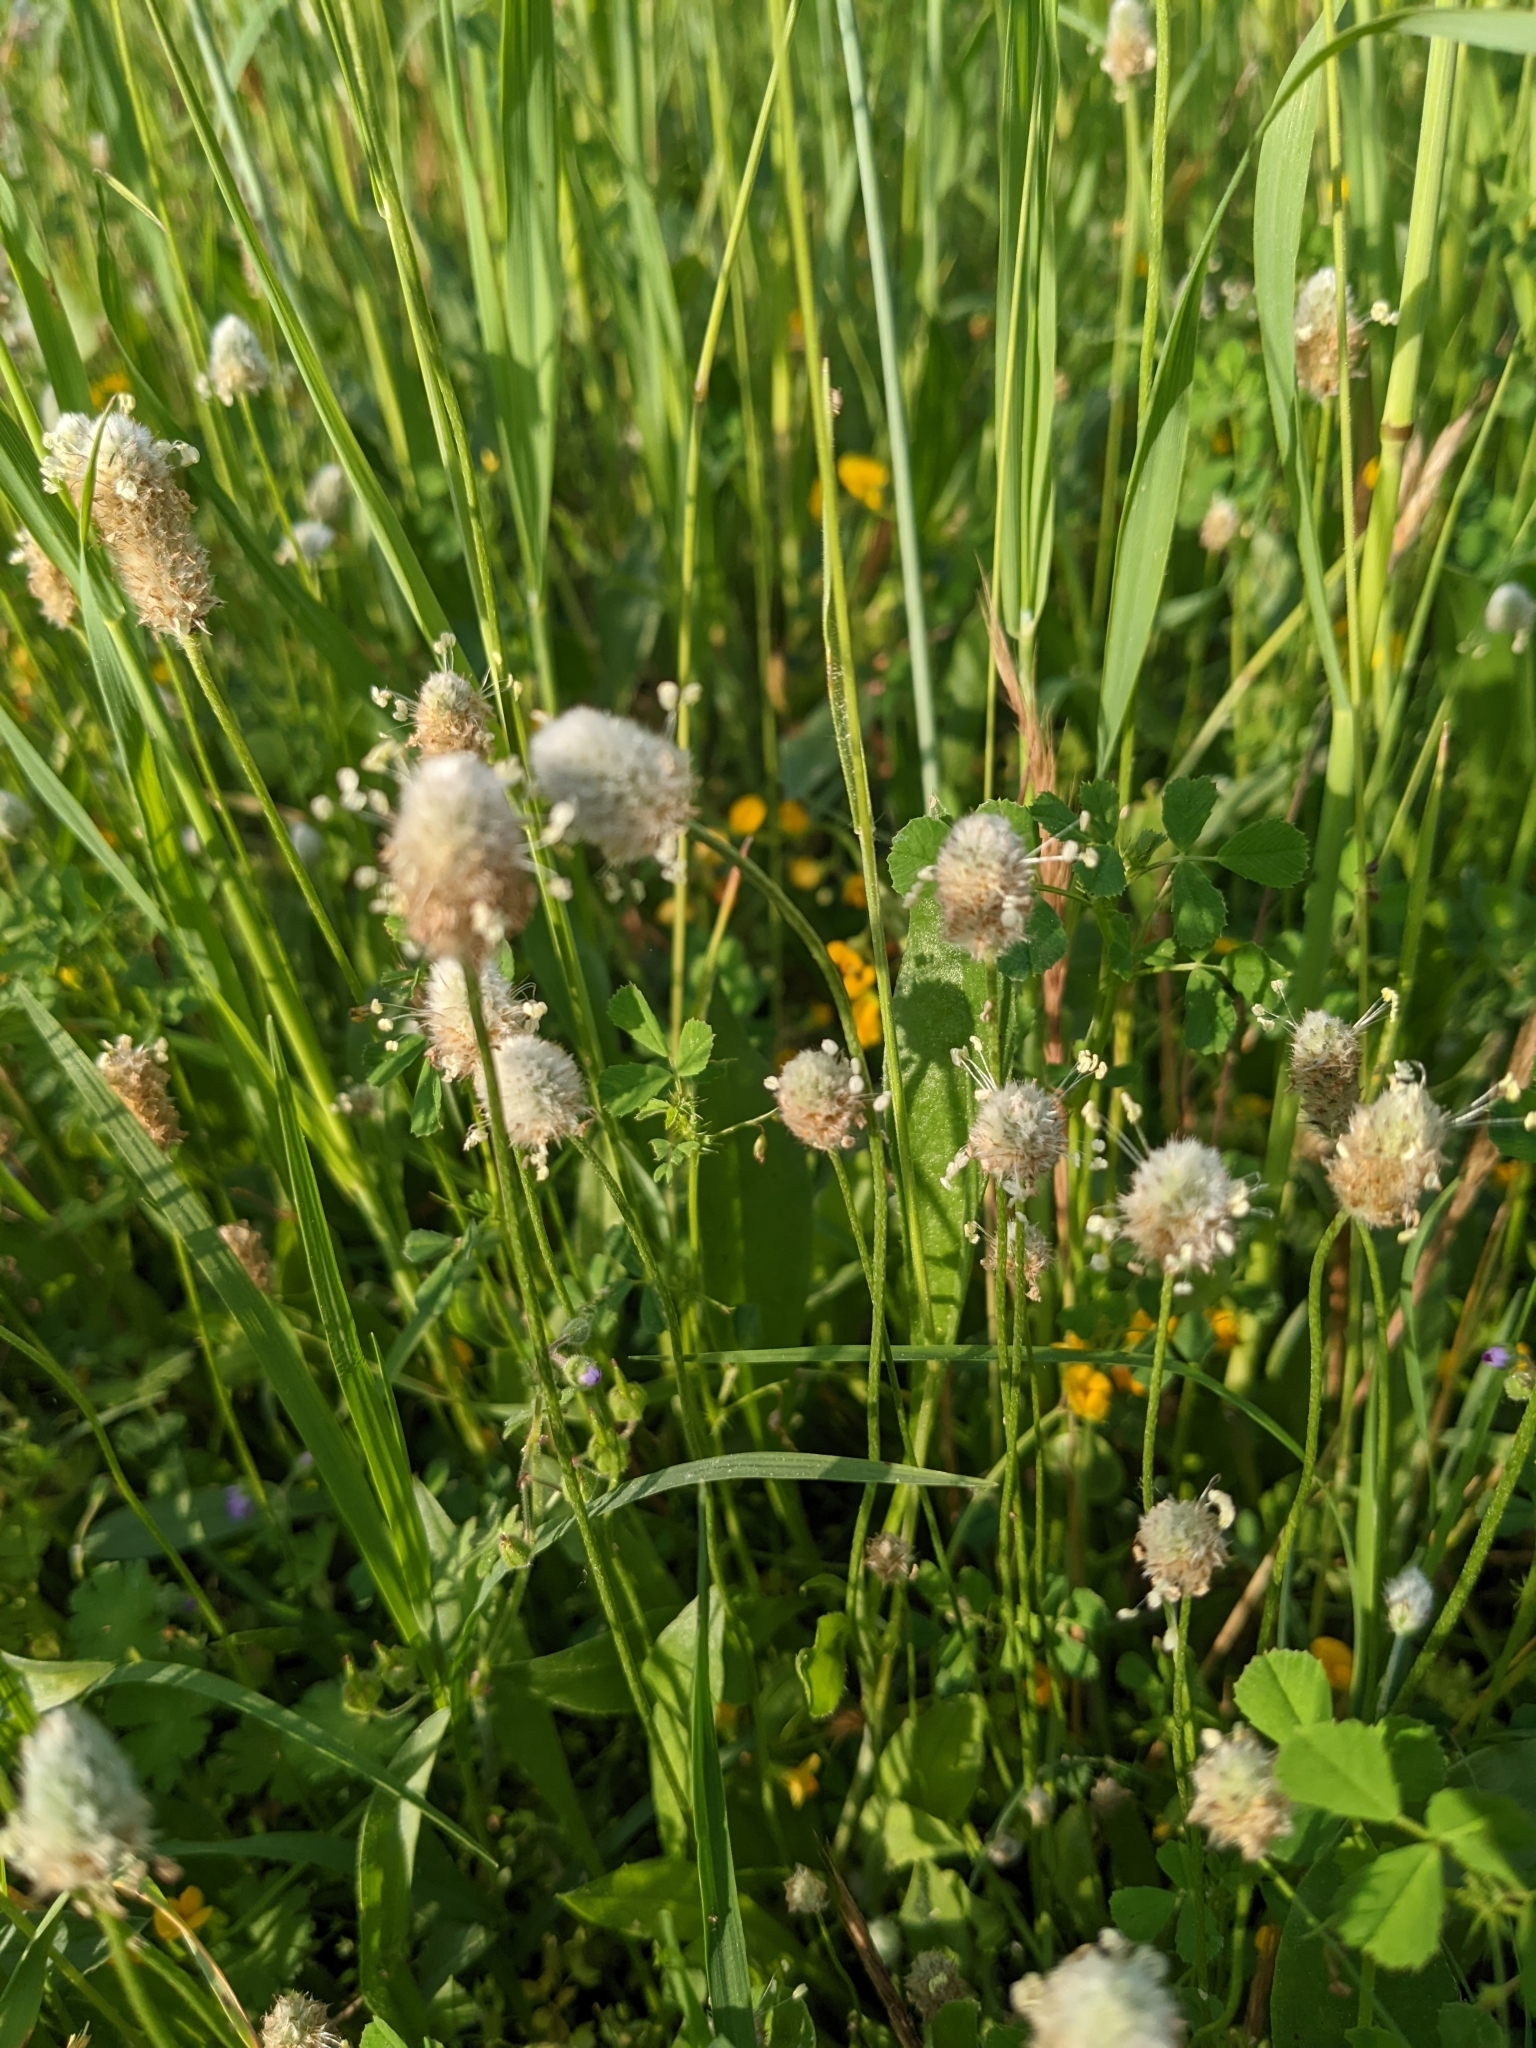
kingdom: Plantae
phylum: Tracheophyta
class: Magnoliopsida
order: Lamiales
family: Plantaginaceae
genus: Plantago
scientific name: Plantago lagopus
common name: Hare-foot plantain
